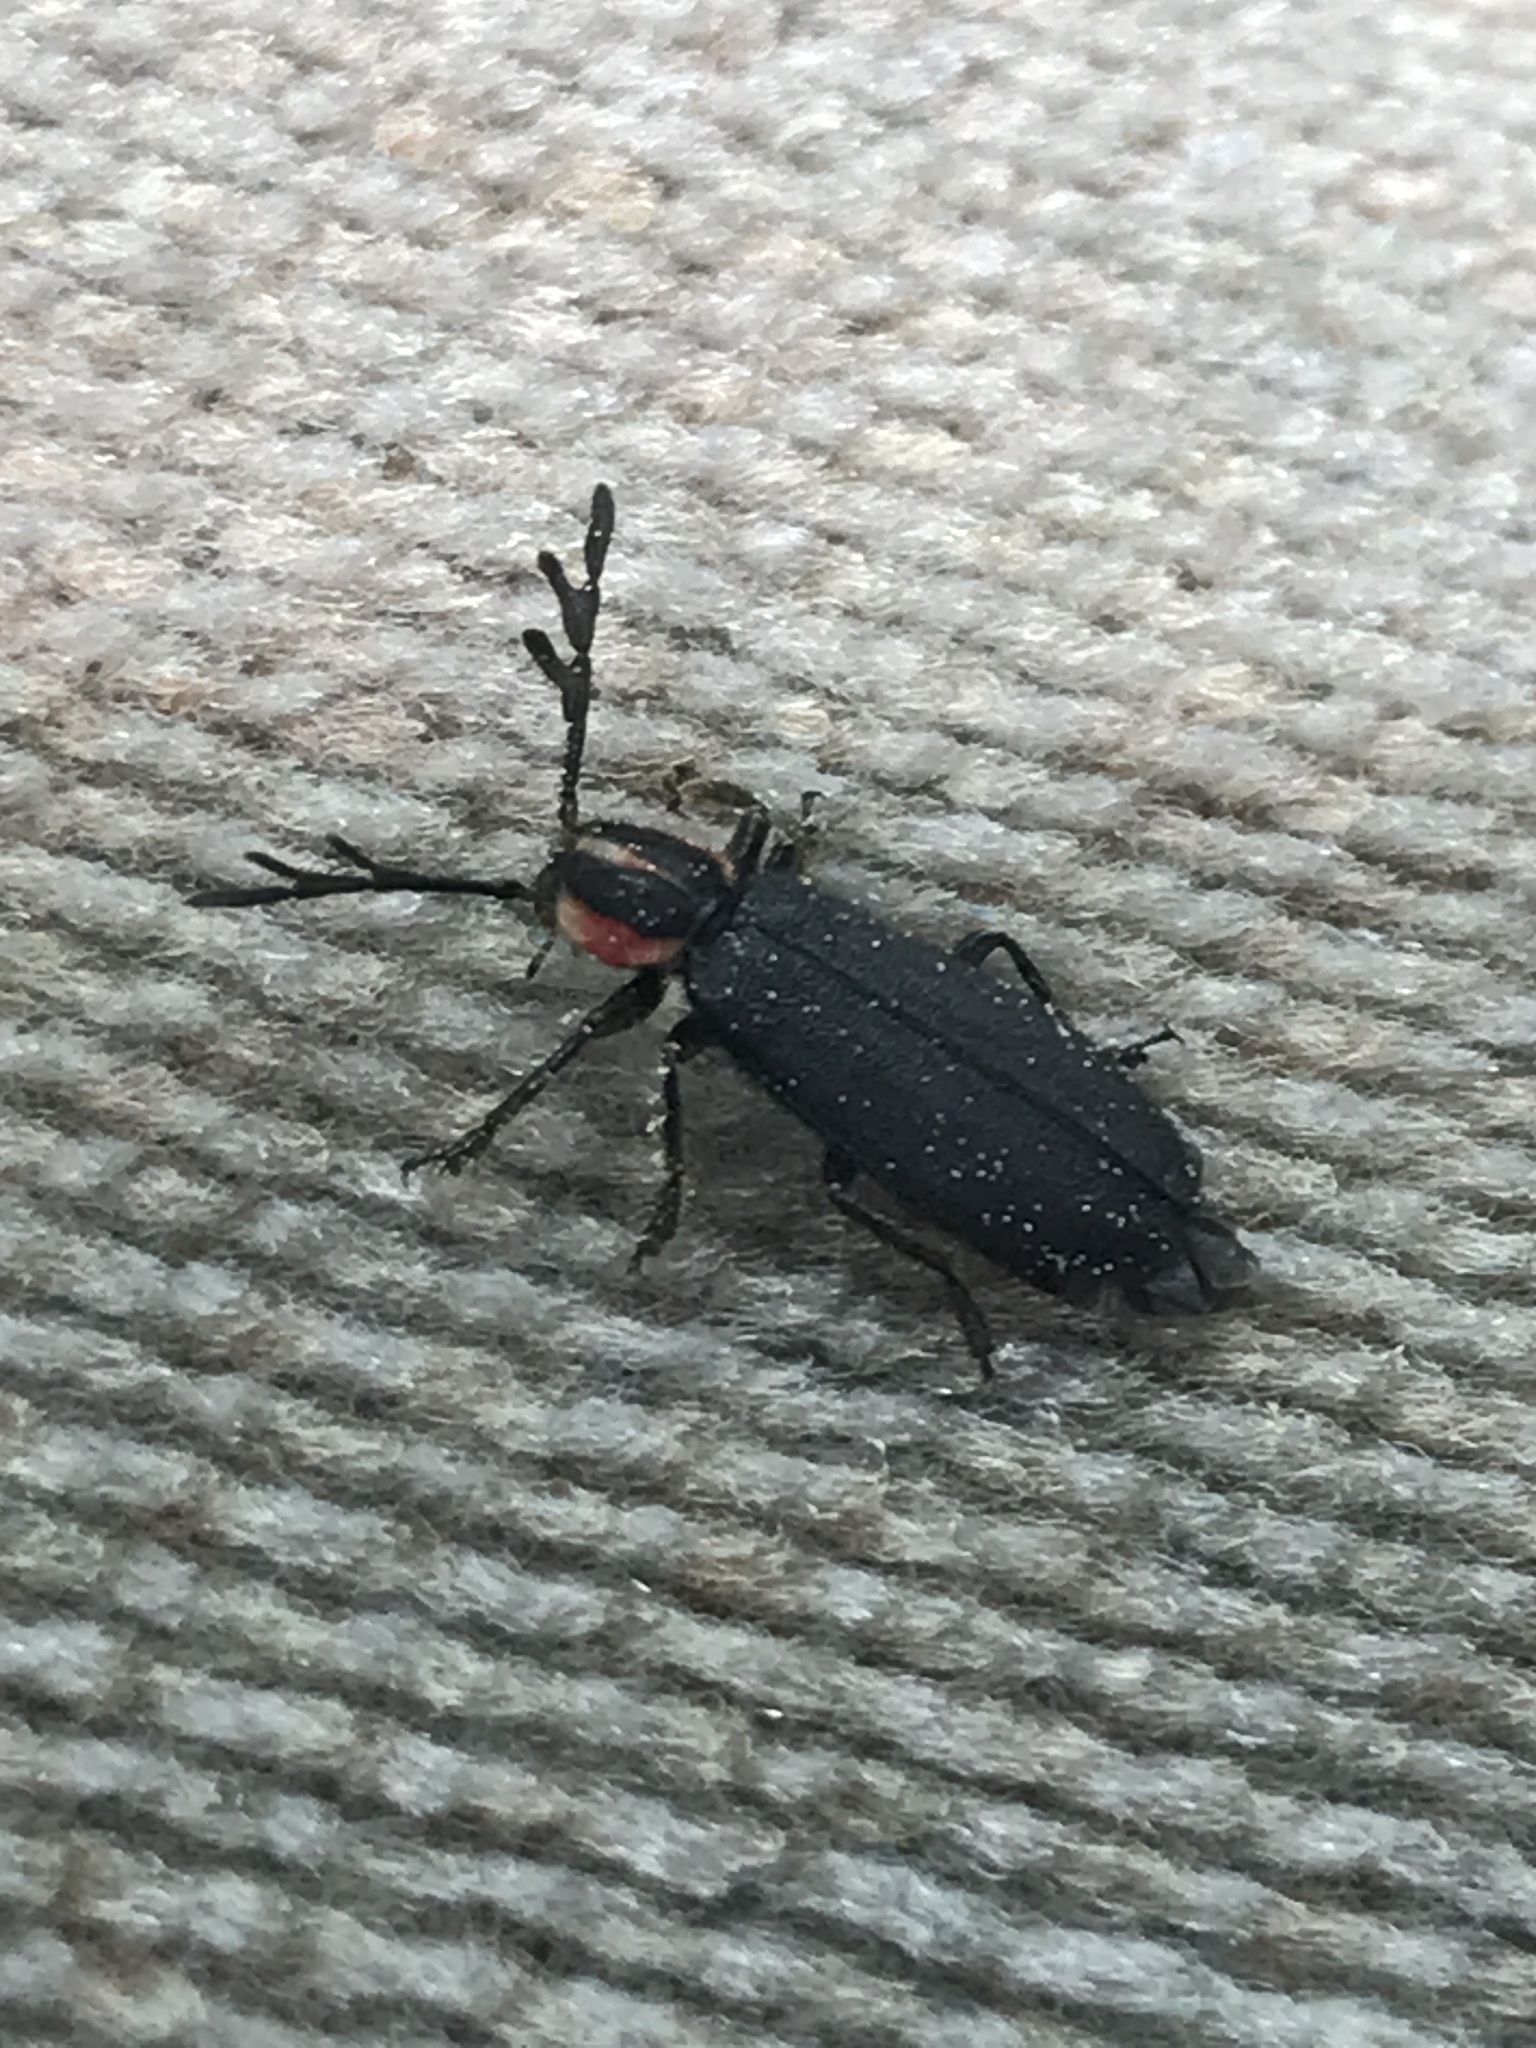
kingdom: Animalia
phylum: Arthropoda
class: Insecta
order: Coleoptera
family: Cleridae
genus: Chariessa
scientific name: Chariessa pilosa
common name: Pilose checkered beetle
